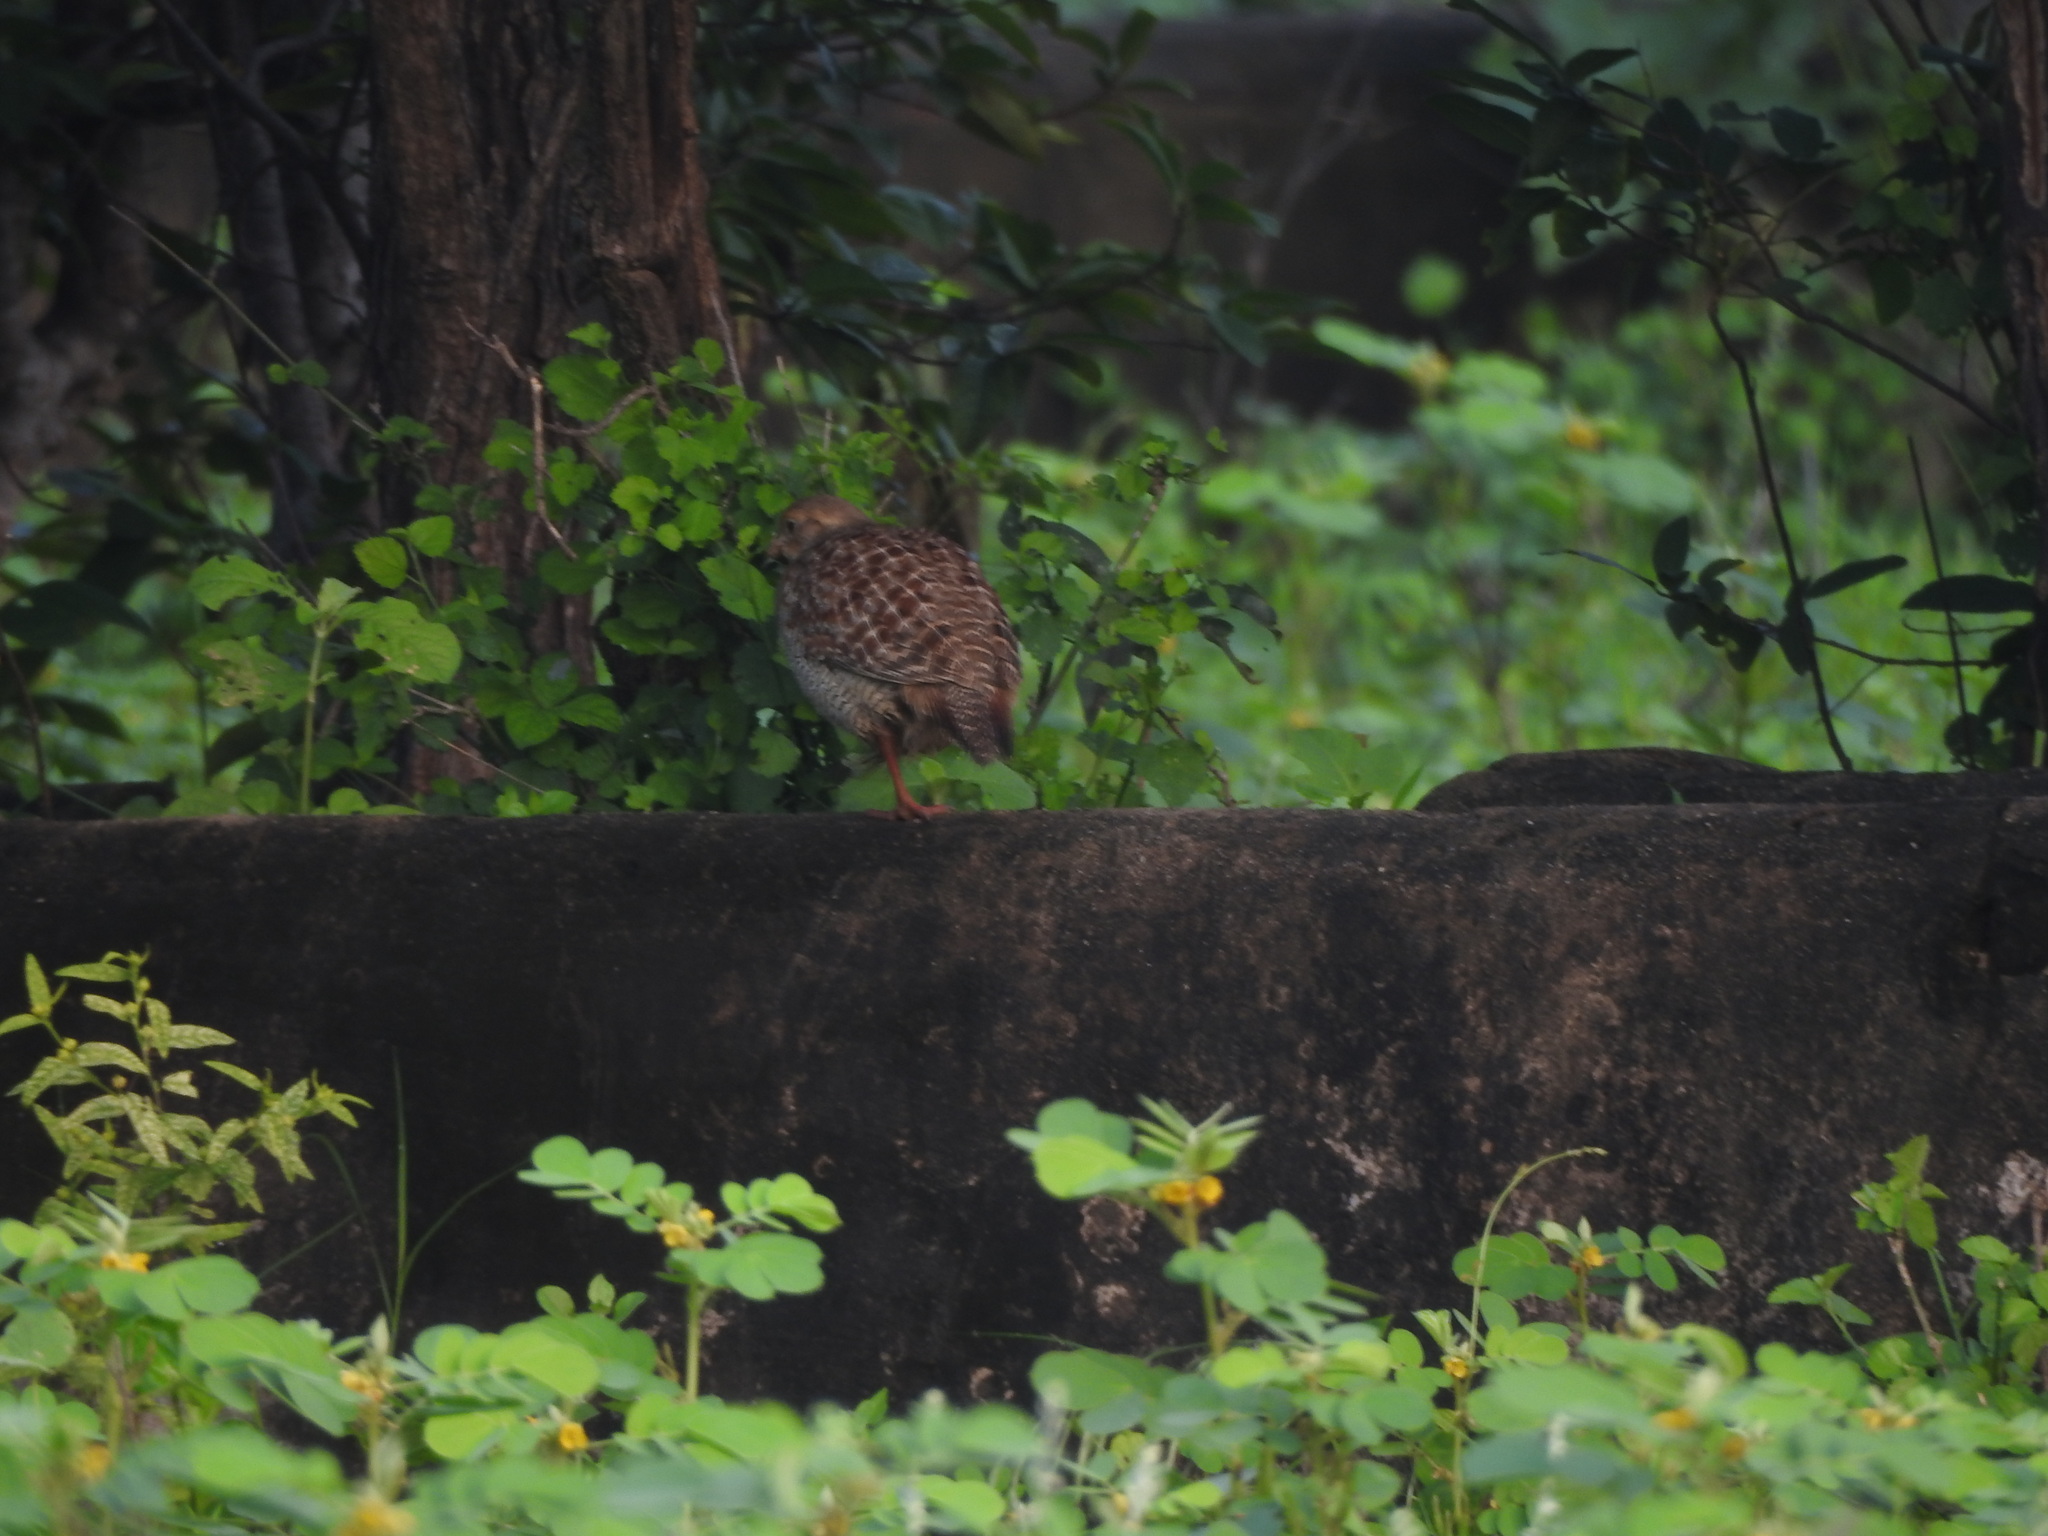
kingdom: Animalia
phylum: Chordata
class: Aves
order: Galliformes
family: Phasianidae
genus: Ortygornis
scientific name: Ortygornis pondicerianus
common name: Grey francolin
